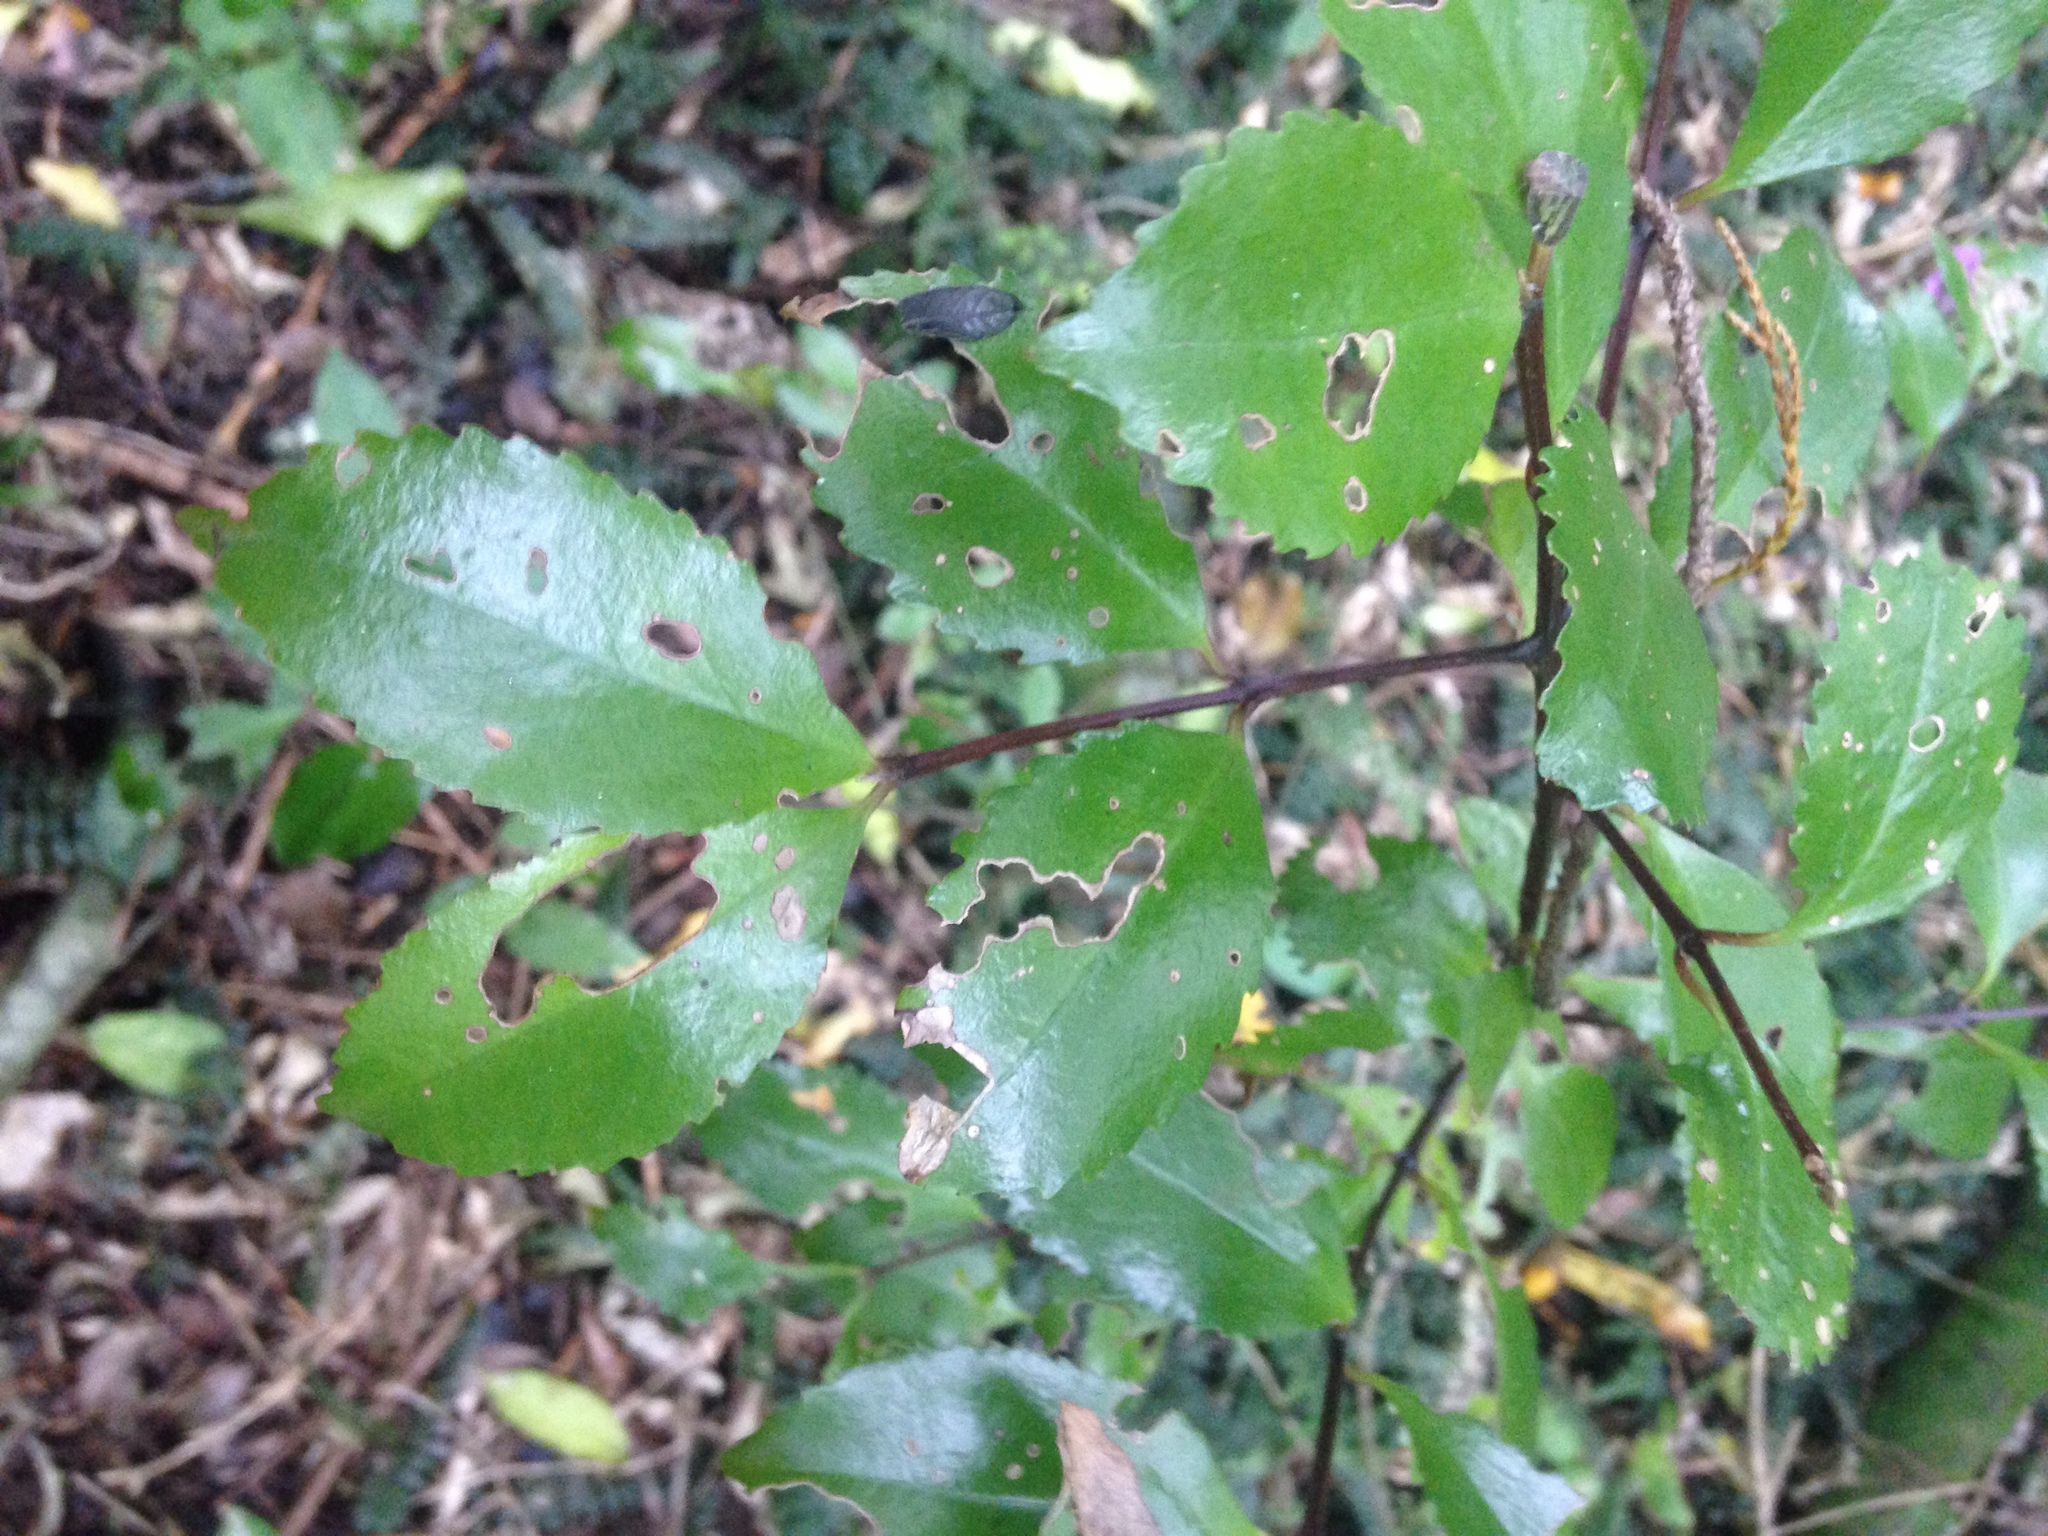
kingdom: Plantae
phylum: Tracheophyta
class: Magnoliopsida
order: Laurales
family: Atherospermataceae
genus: Laurelia
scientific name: Laurelia novae-zelandiae
